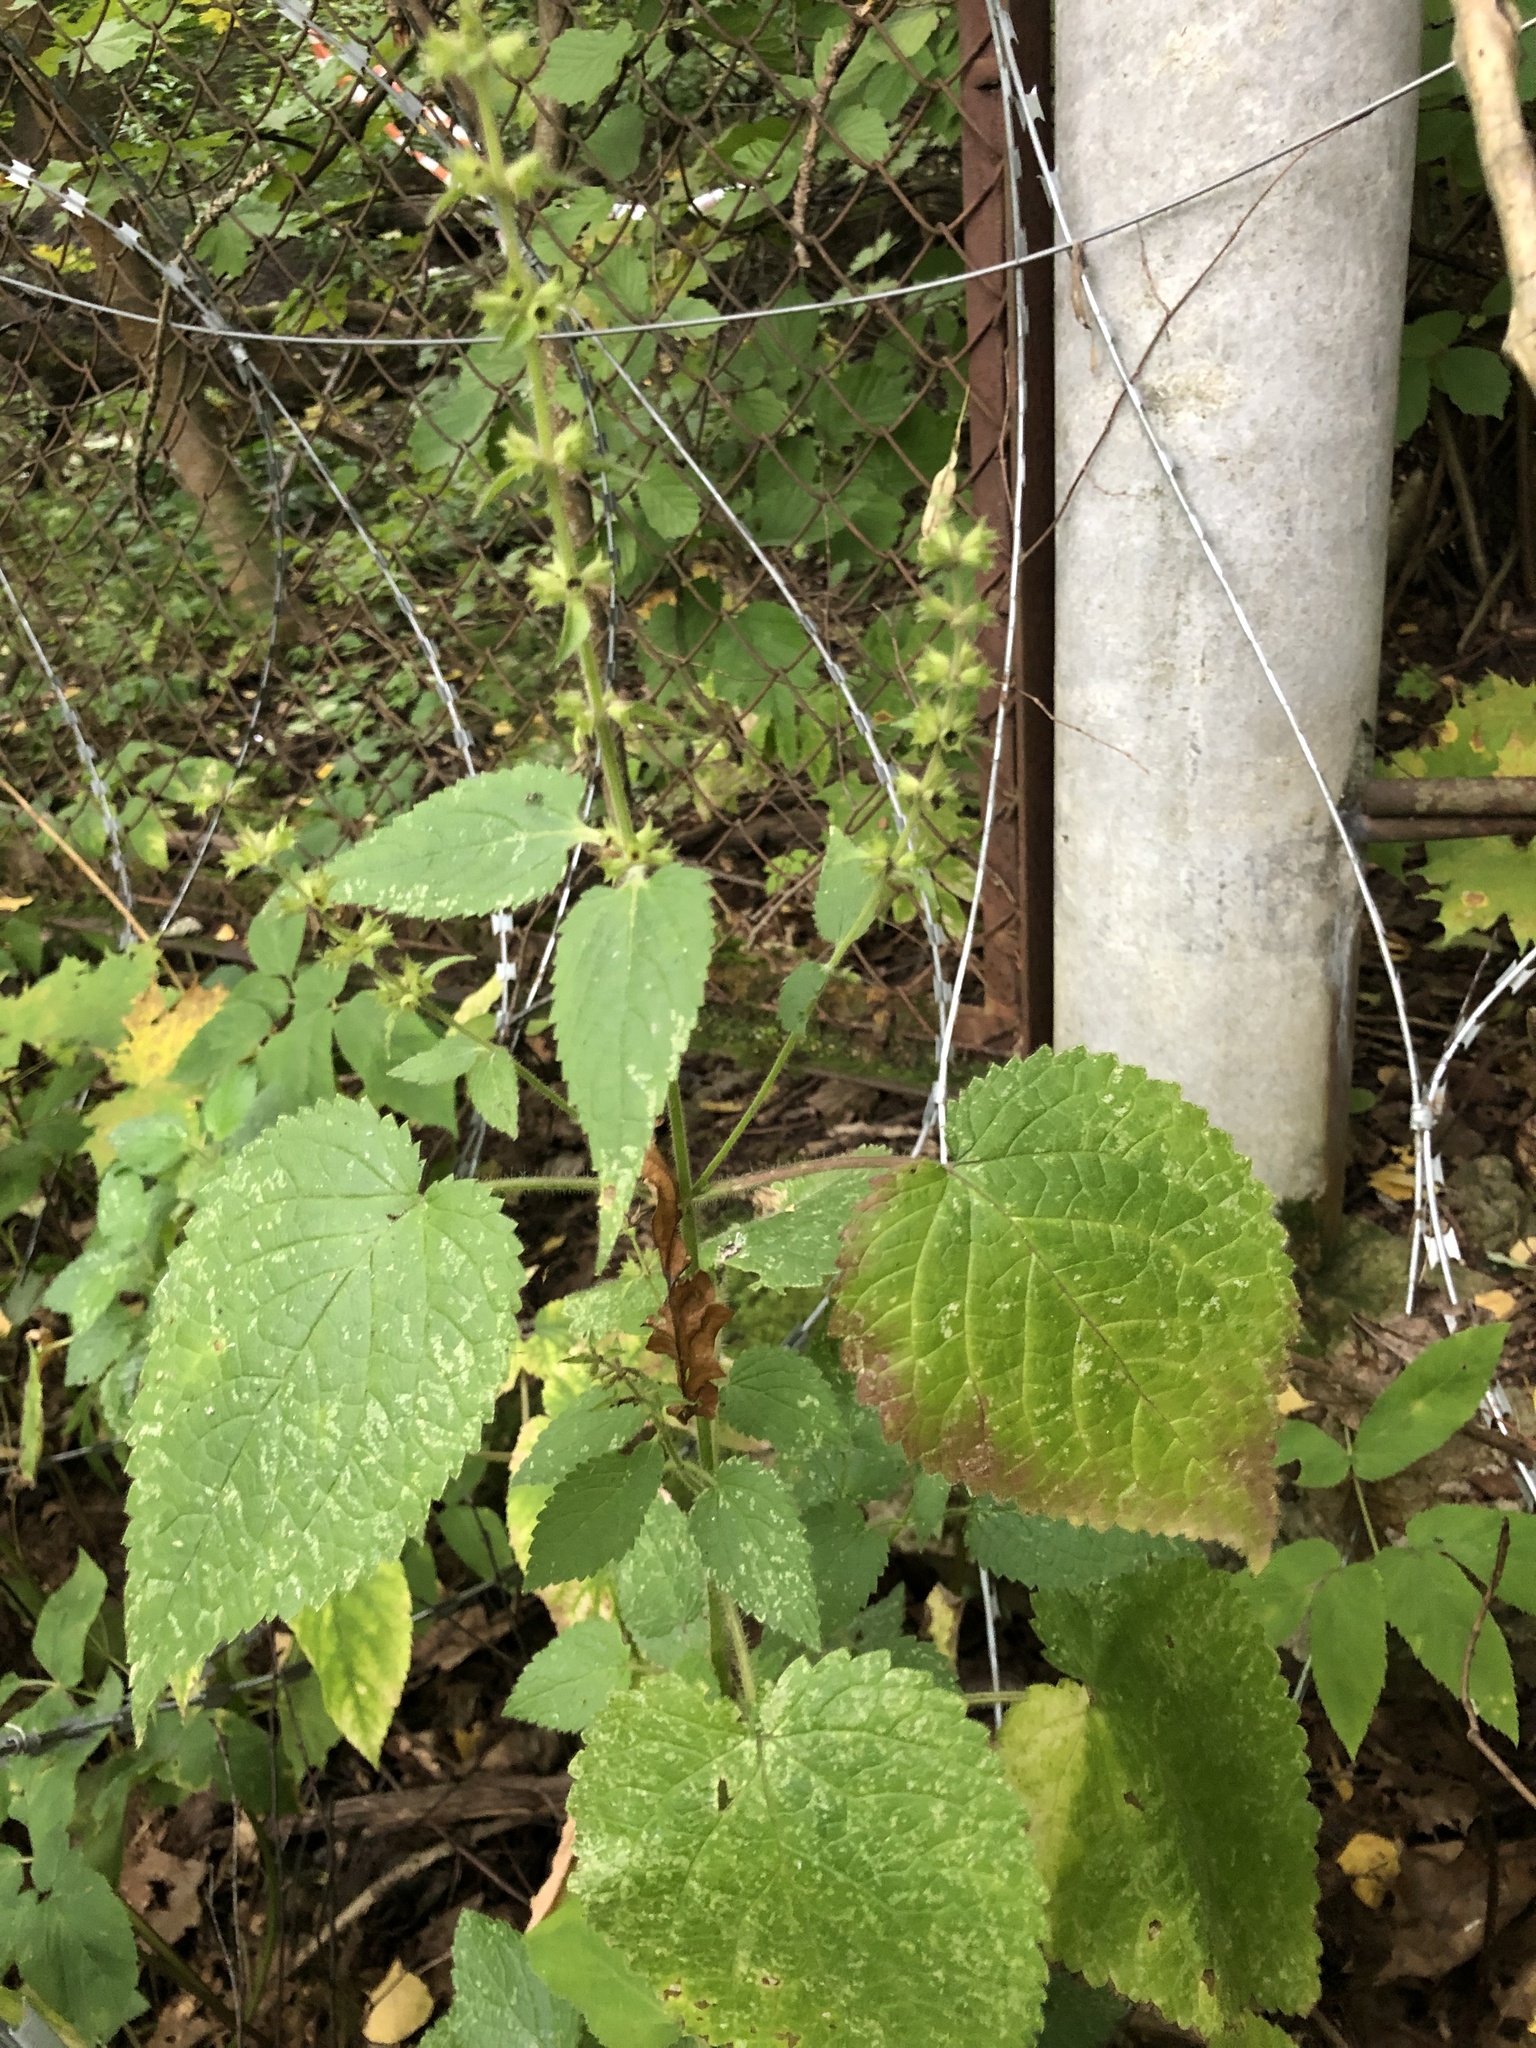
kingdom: Plantae
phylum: Tracheophyta
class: Magnoliopsida
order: Lamiales
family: Lamiaceae
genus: Stachys
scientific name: Stachys sylvatica
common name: Hedge woundwort
